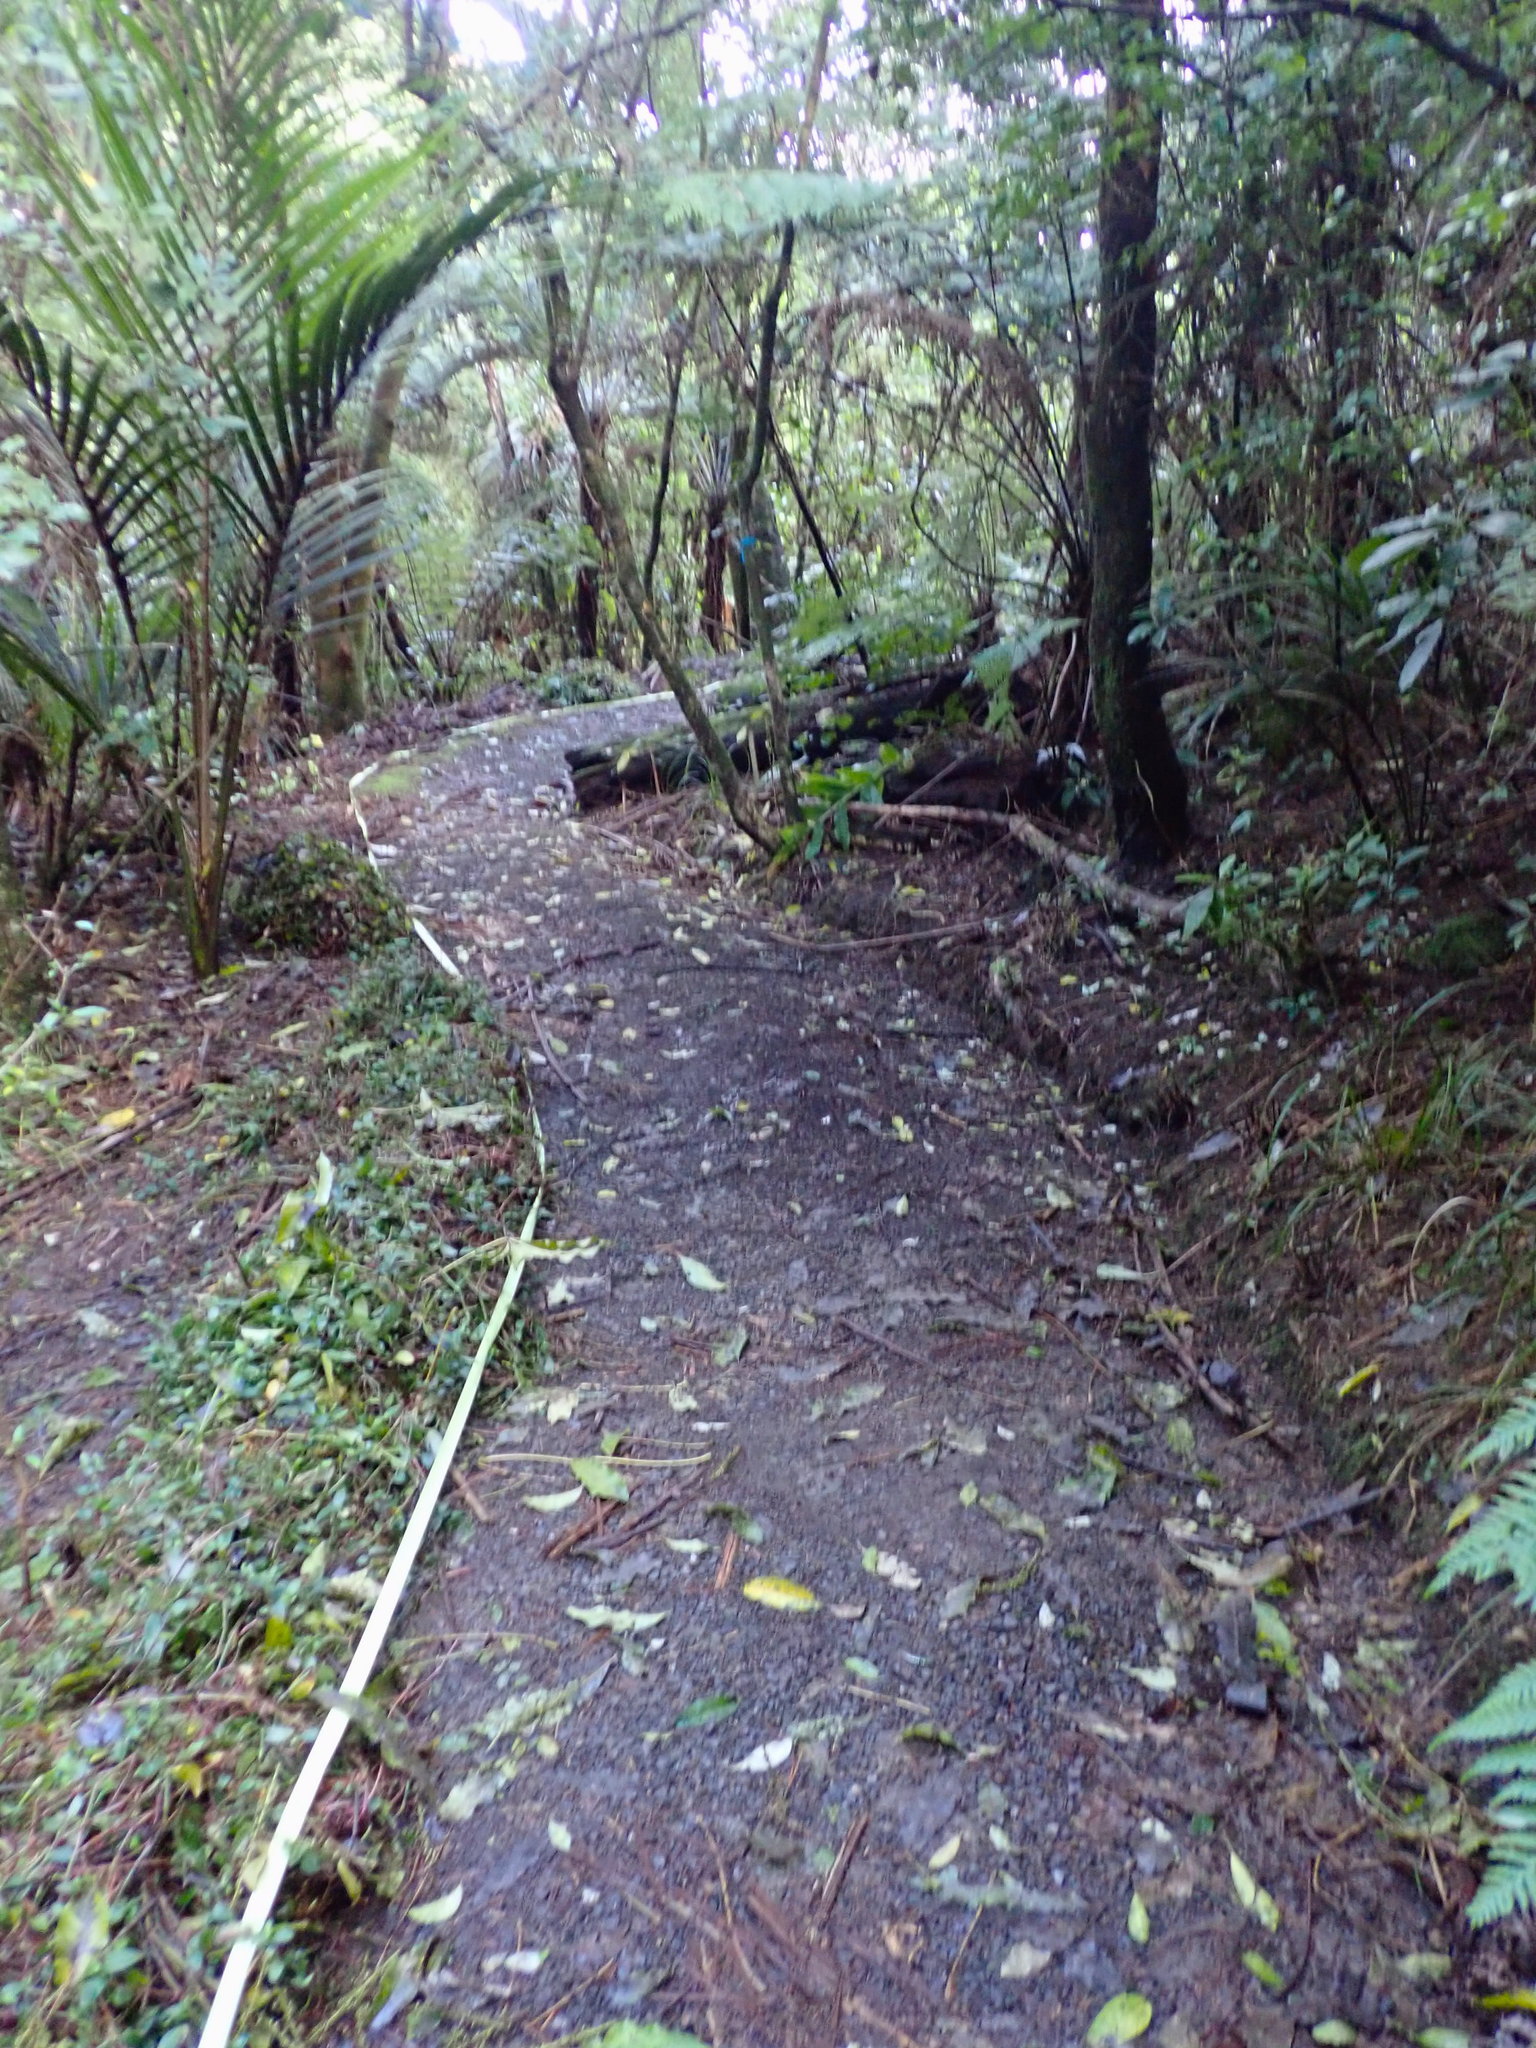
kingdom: Plantae
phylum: Tracheophyta
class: Liliopsida
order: Commelinales
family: Commelinaceae
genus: Tradescantia
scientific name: Tradescantia fluminensis
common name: Wandering-jew
